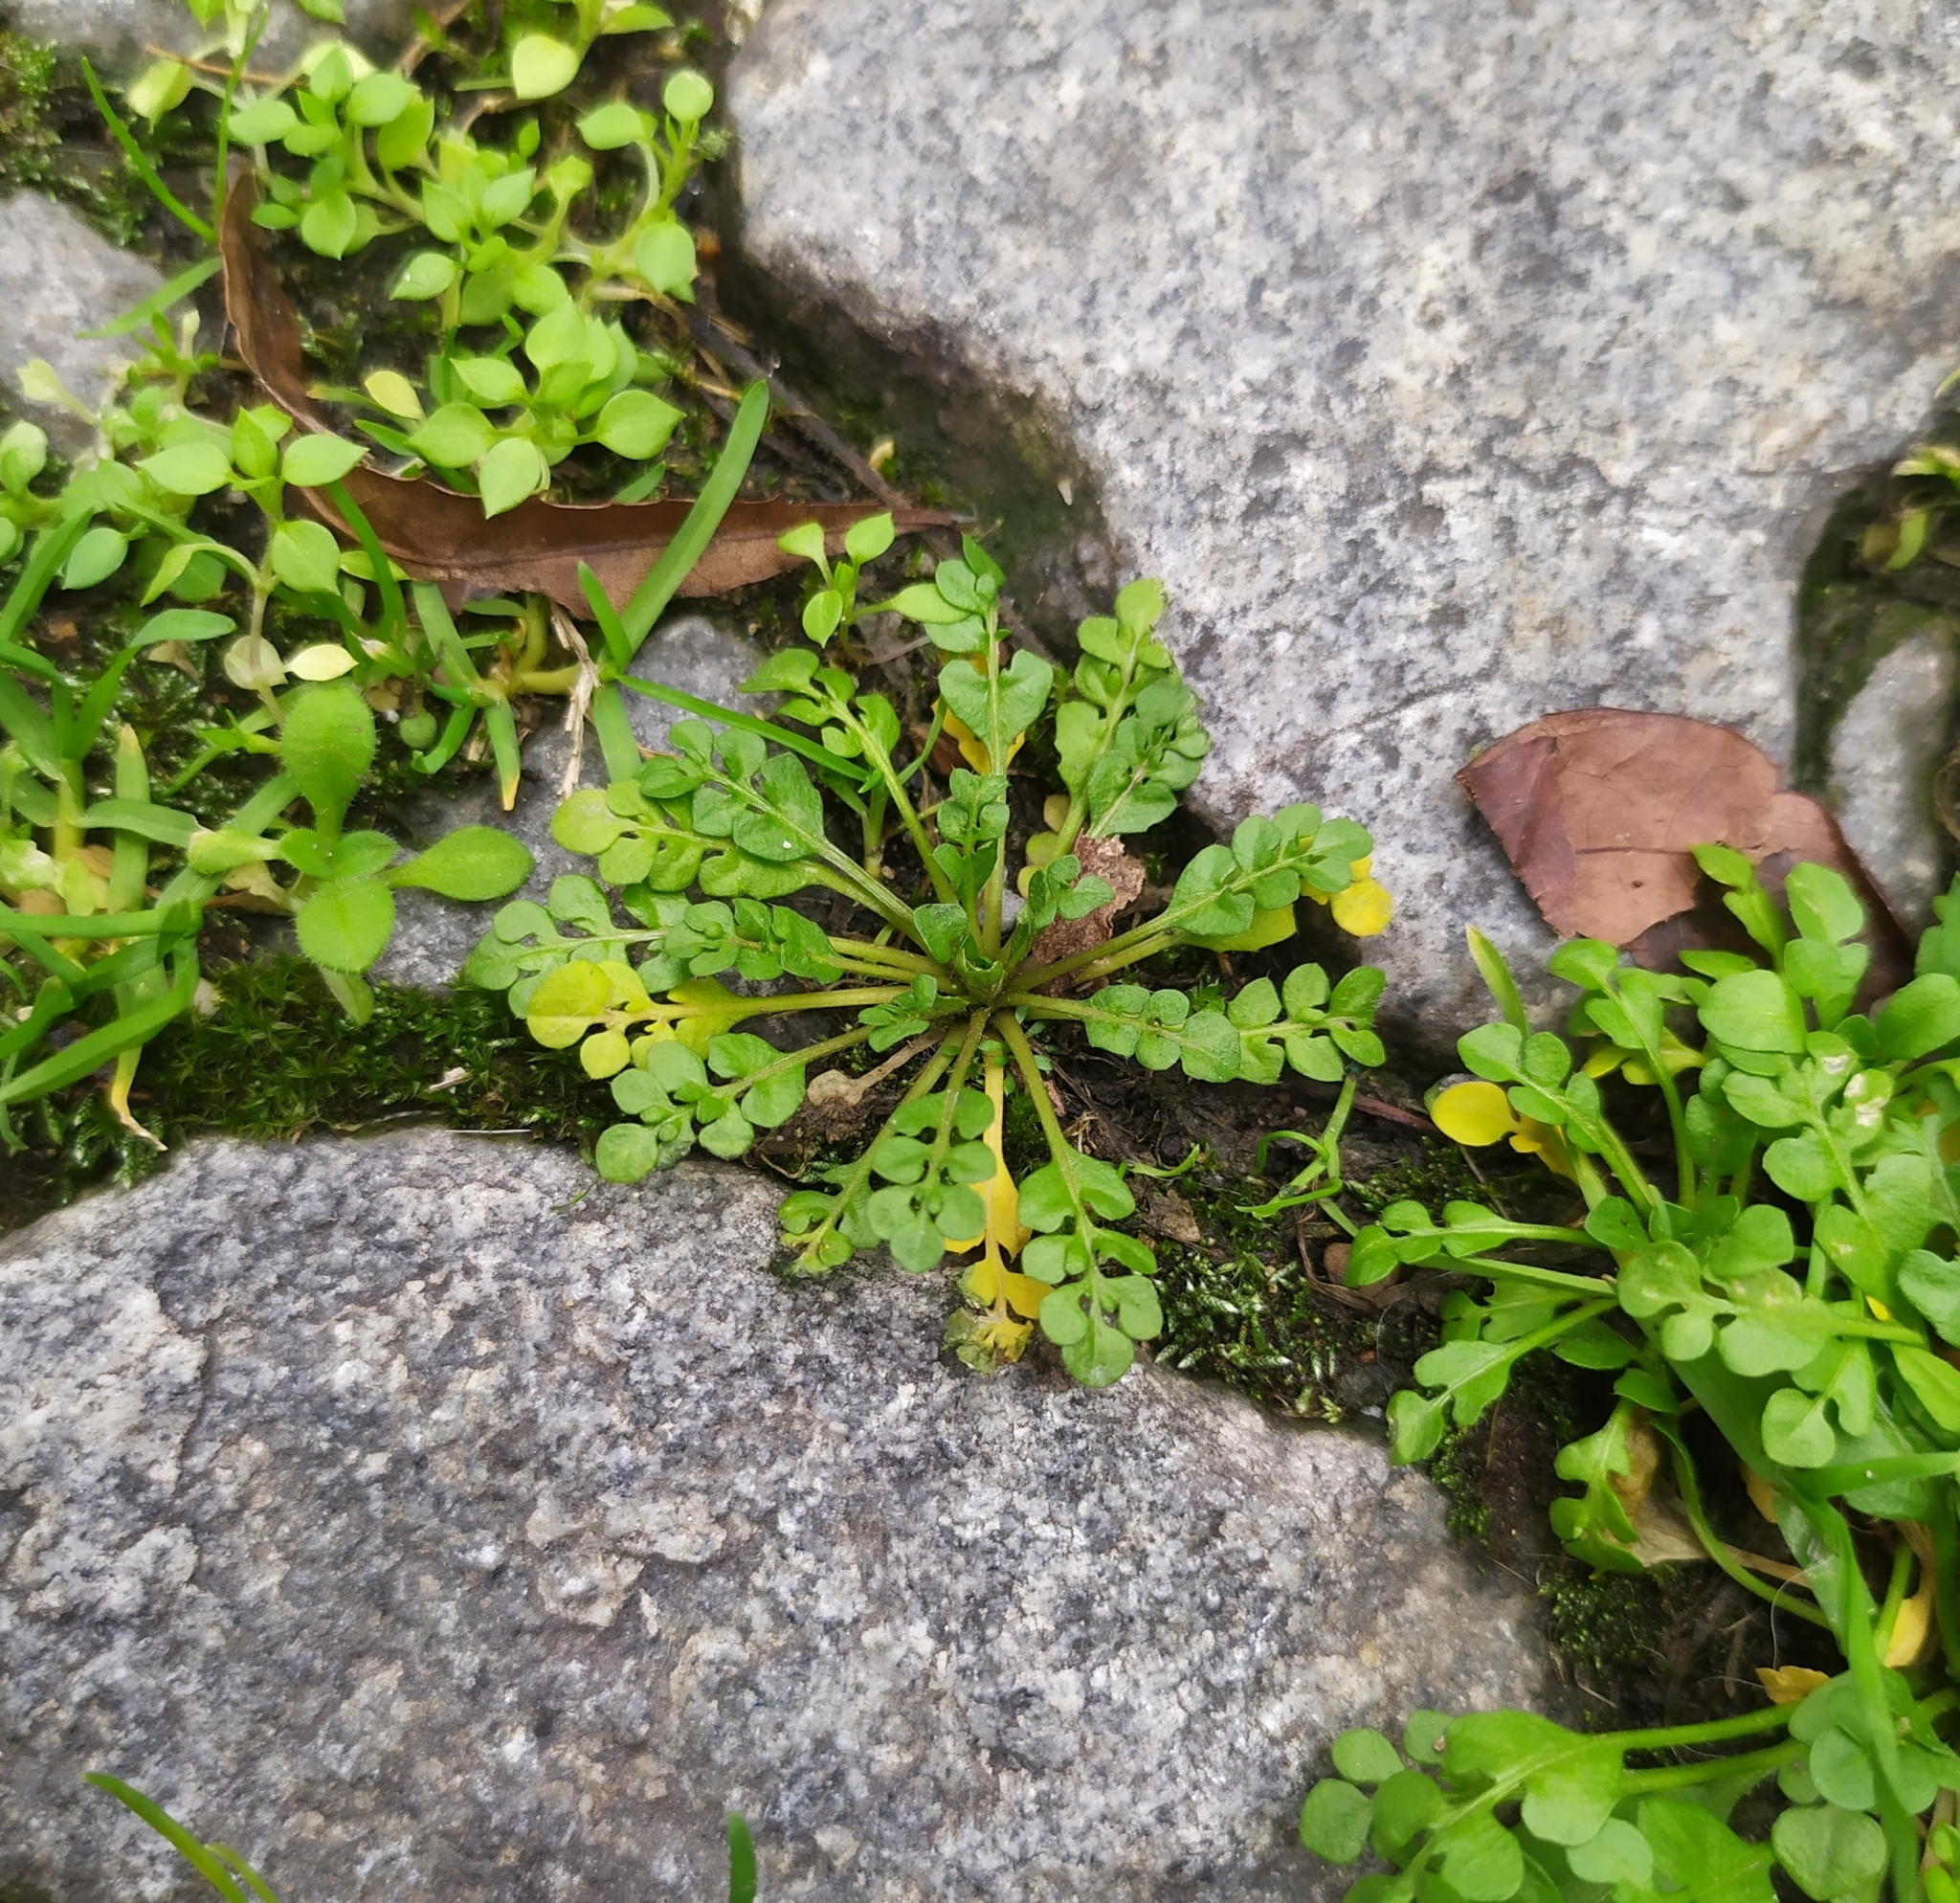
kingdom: Plantae
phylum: Tracheophyta
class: Magnoliopsida
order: Brassicales
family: Brassicaceae
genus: Capsella
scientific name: Capsella bursa-pastoris
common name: Shepherd's purse
